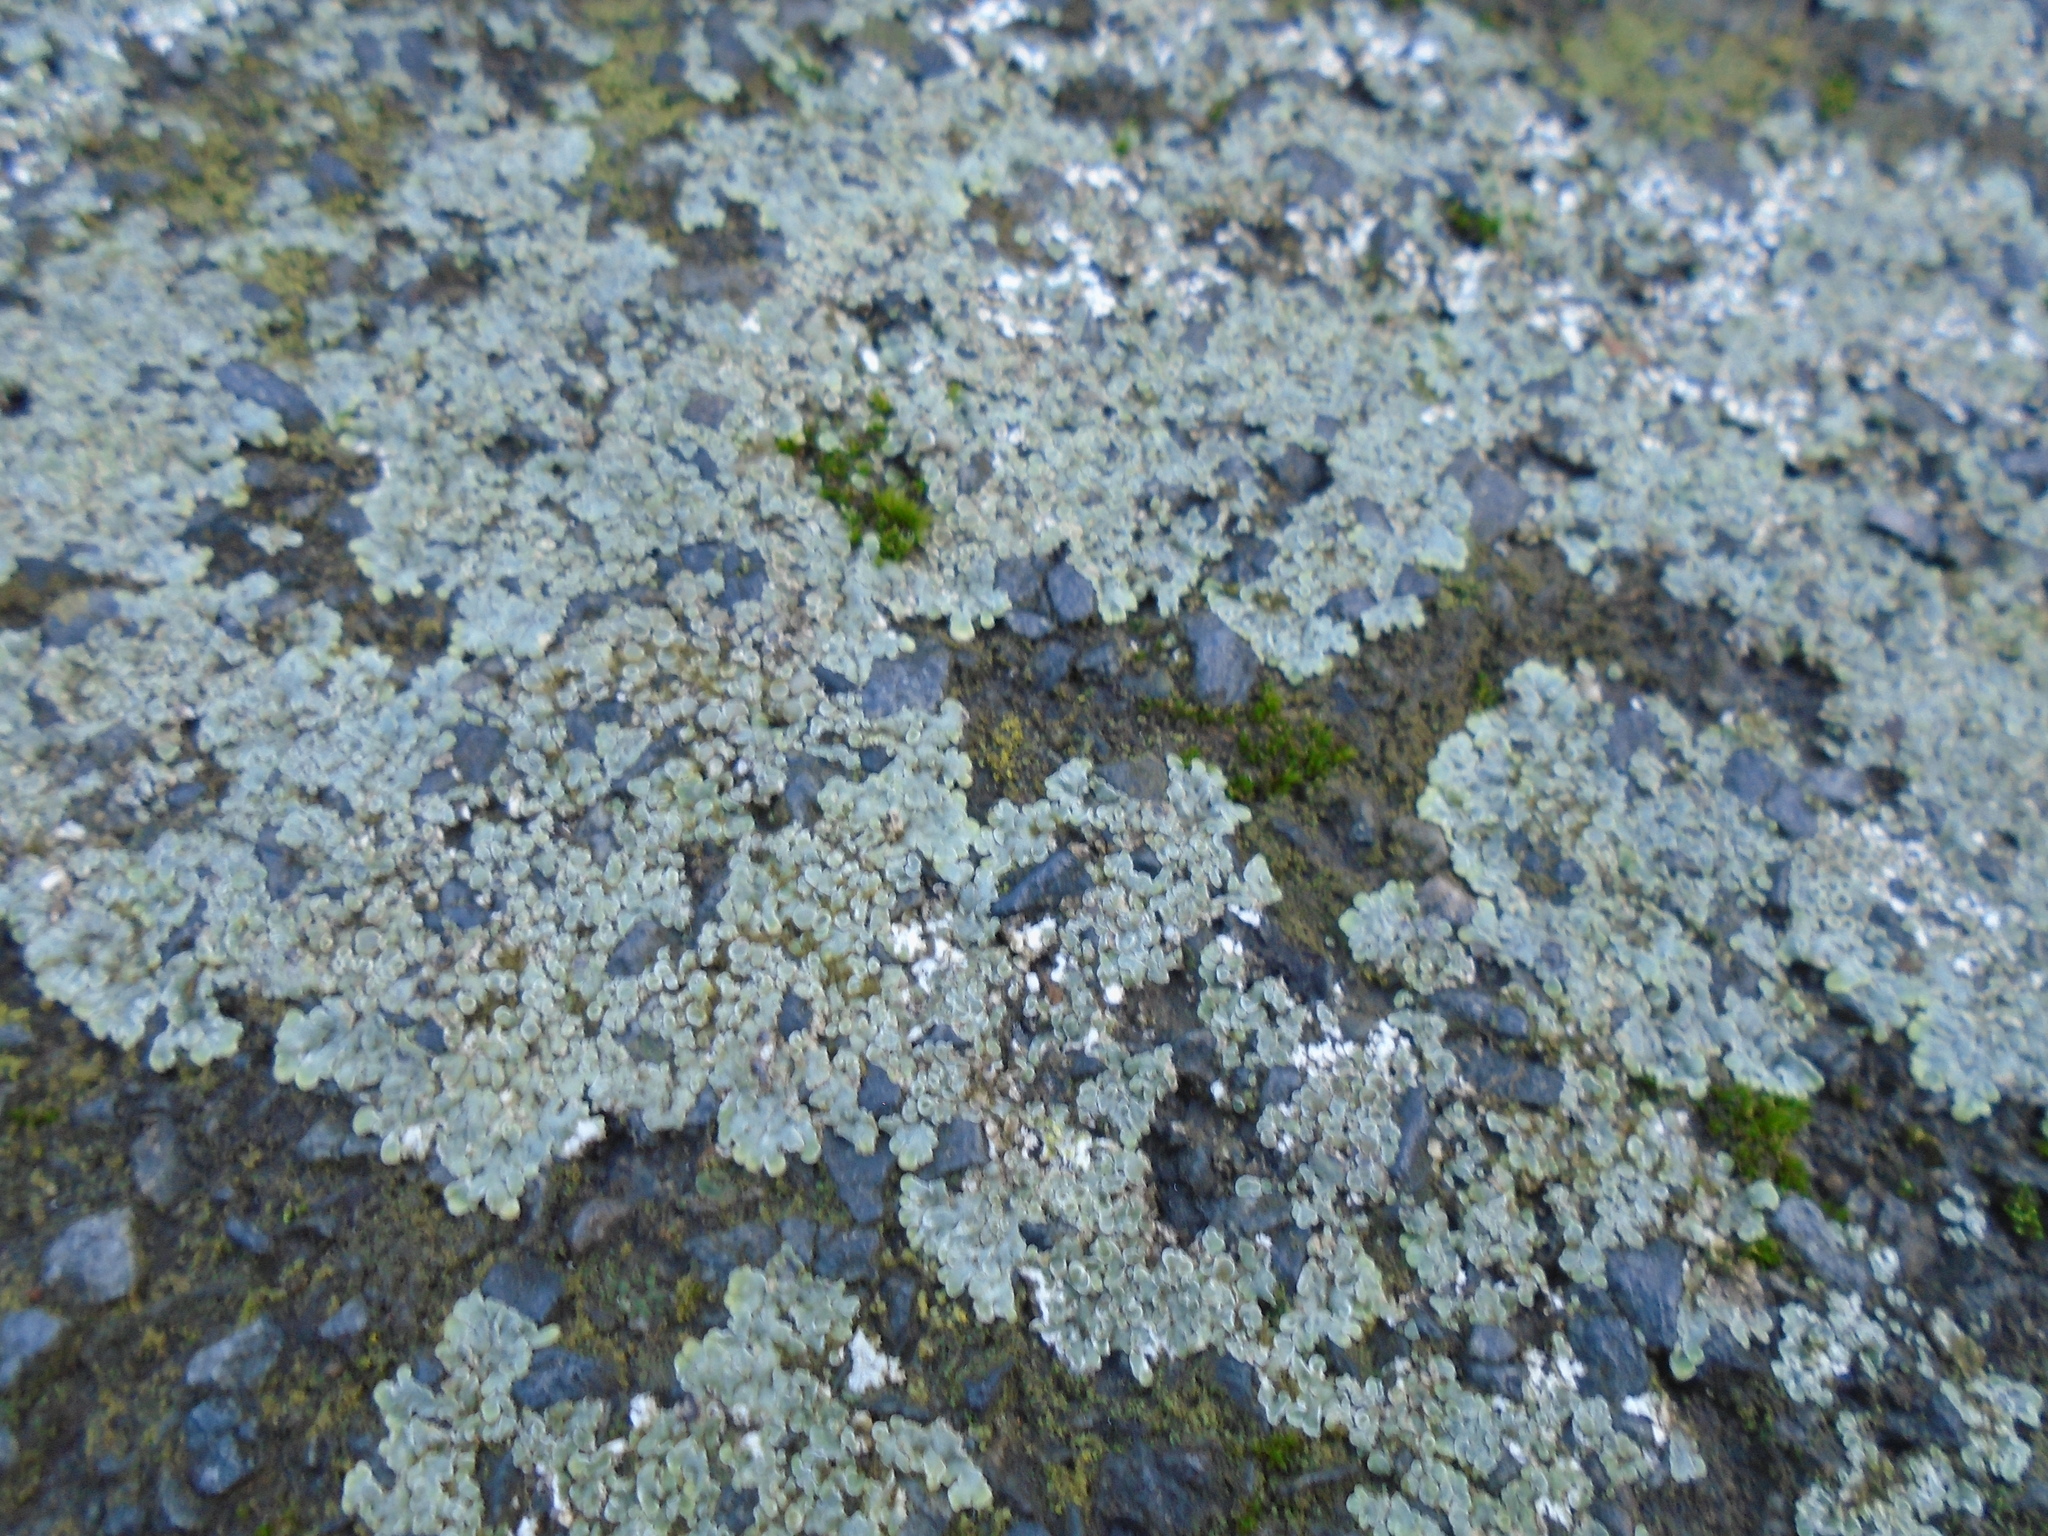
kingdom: Fungi
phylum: Ascomycota
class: Lecanoromycetes
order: Lecanorales
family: Lecanoraceae
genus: Protoparmeliopsis
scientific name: Protoparmeliopsis muralis
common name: Stonewall rim lichen
